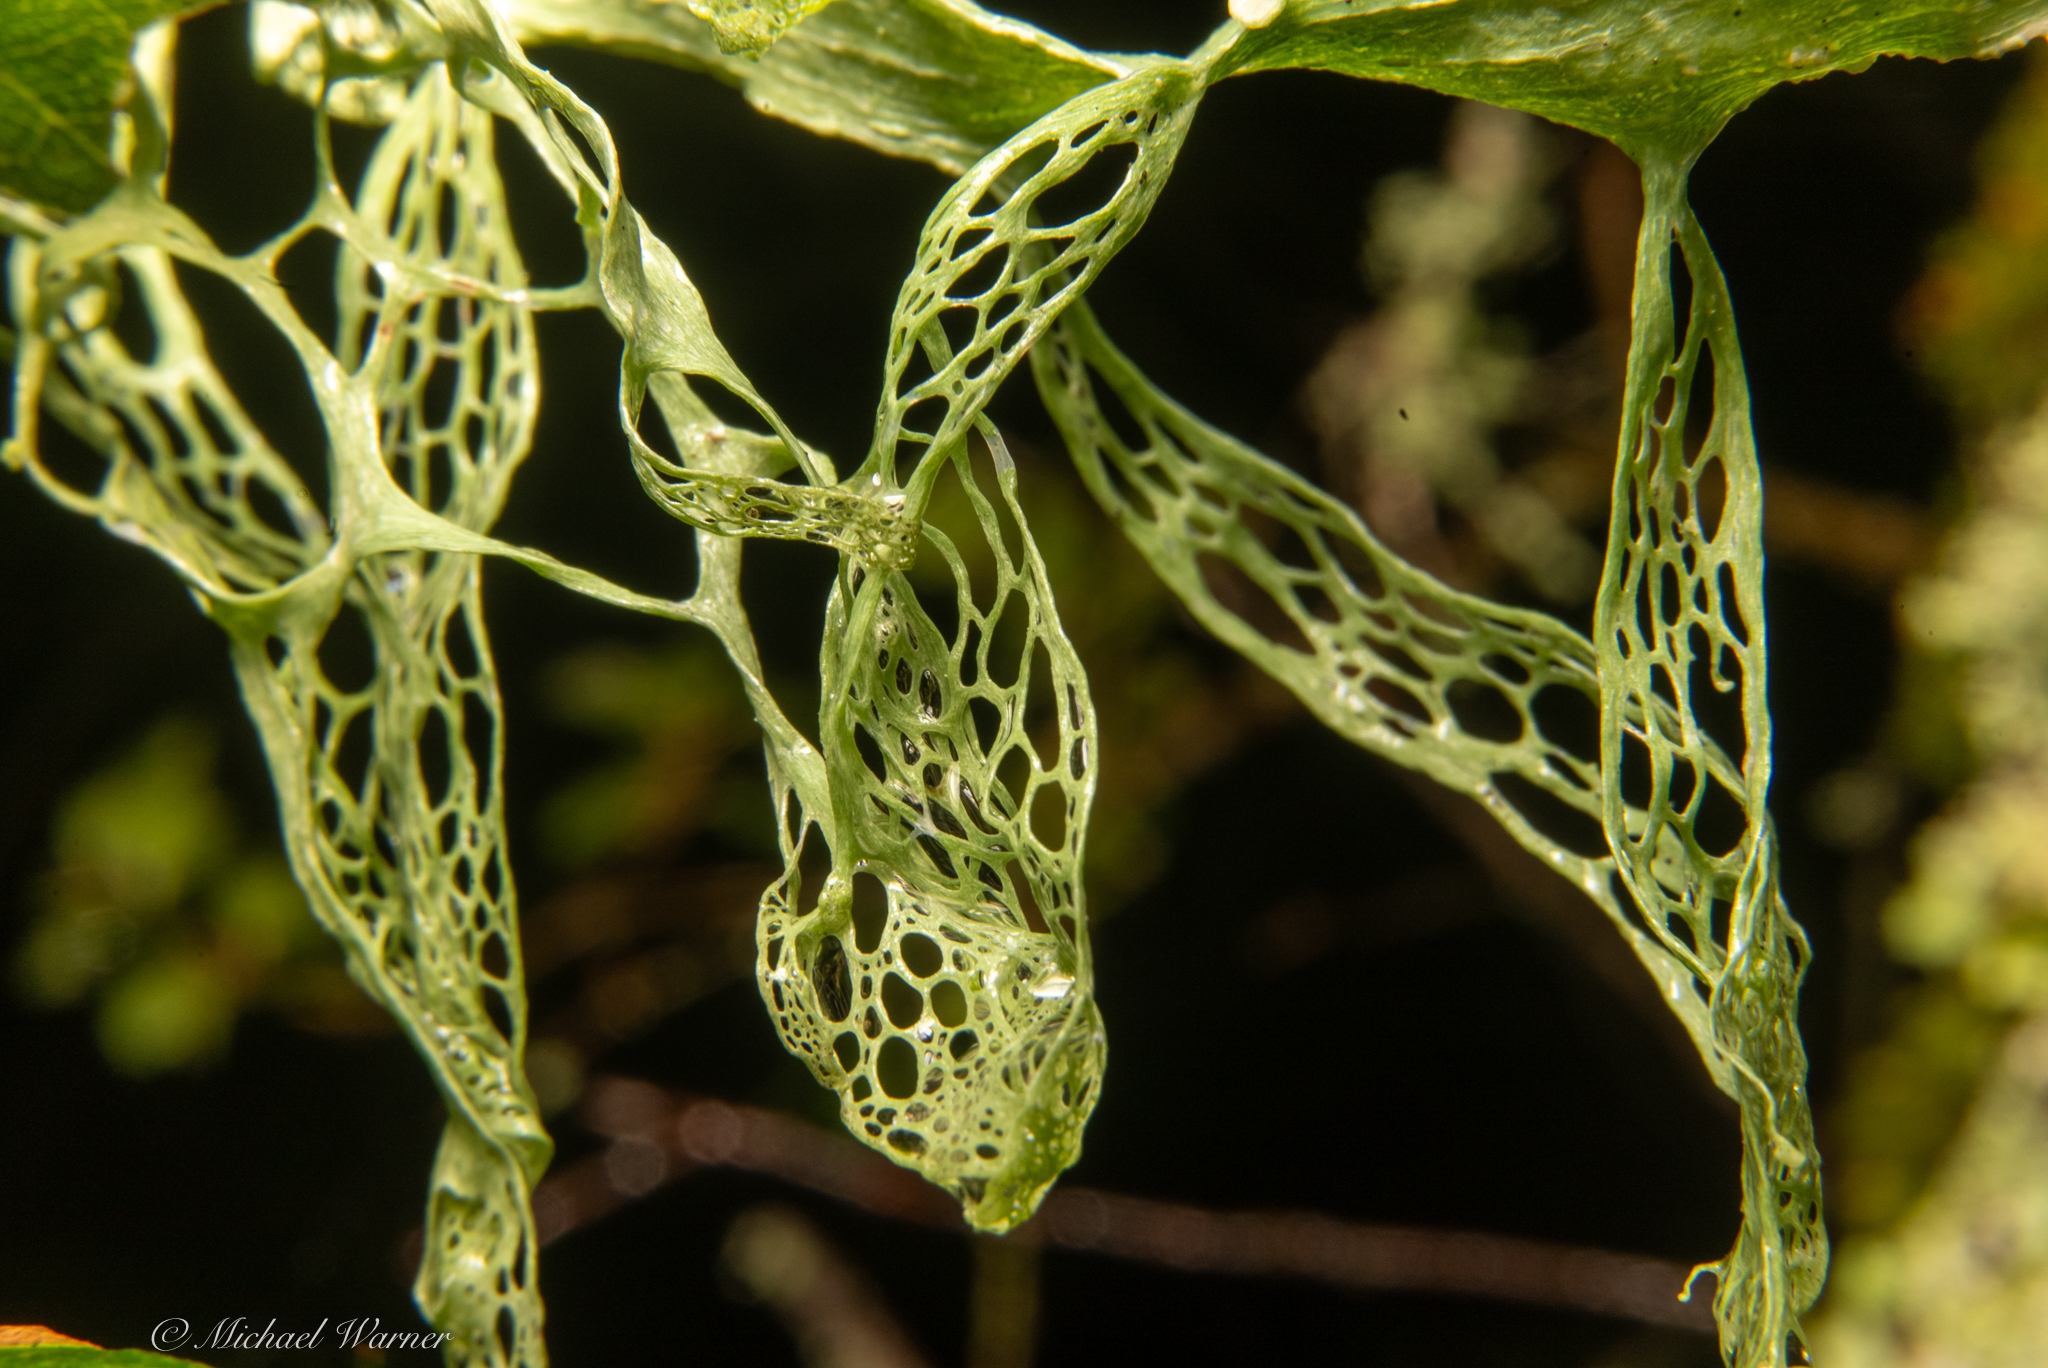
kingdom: Fungi
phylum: Ascomycota
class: Lecanoromycetes
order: Lecanorales
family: Ramalinaceae
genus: Ramalina
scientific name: Ramalina menziesii
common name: Lace lichen
